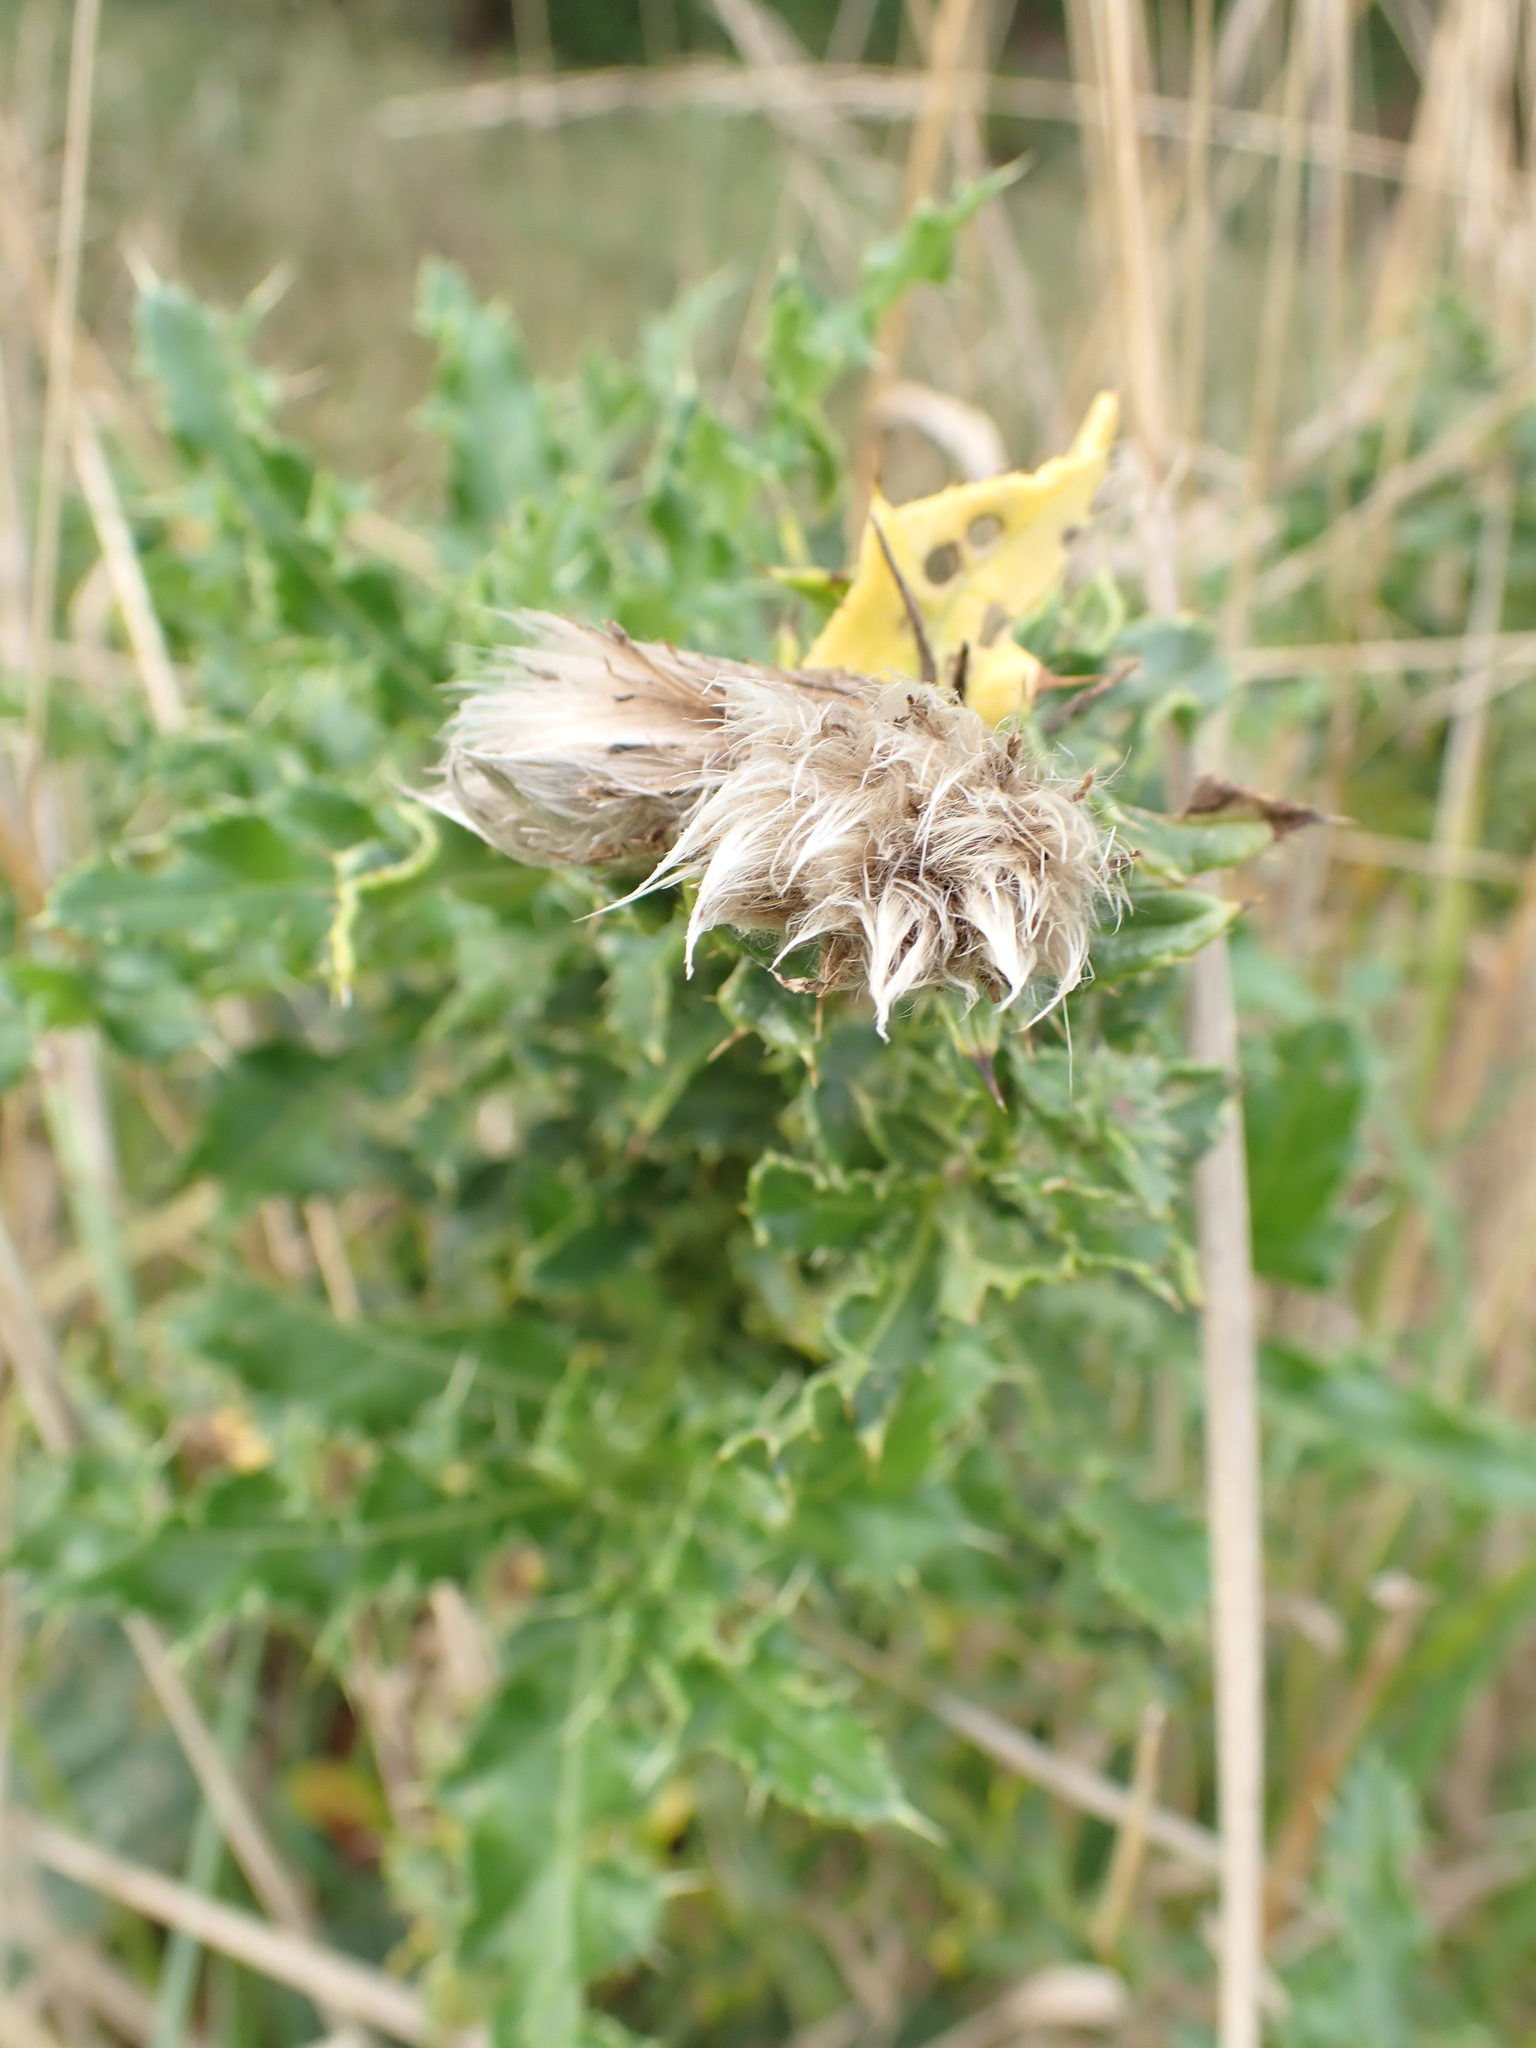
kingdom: Plantae
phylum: Tracheophyta
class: Magnoliopsida
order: Asterales
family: Asteraceae
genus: Cirsium
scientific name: Cirsium arvense
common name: Creeping thistle
